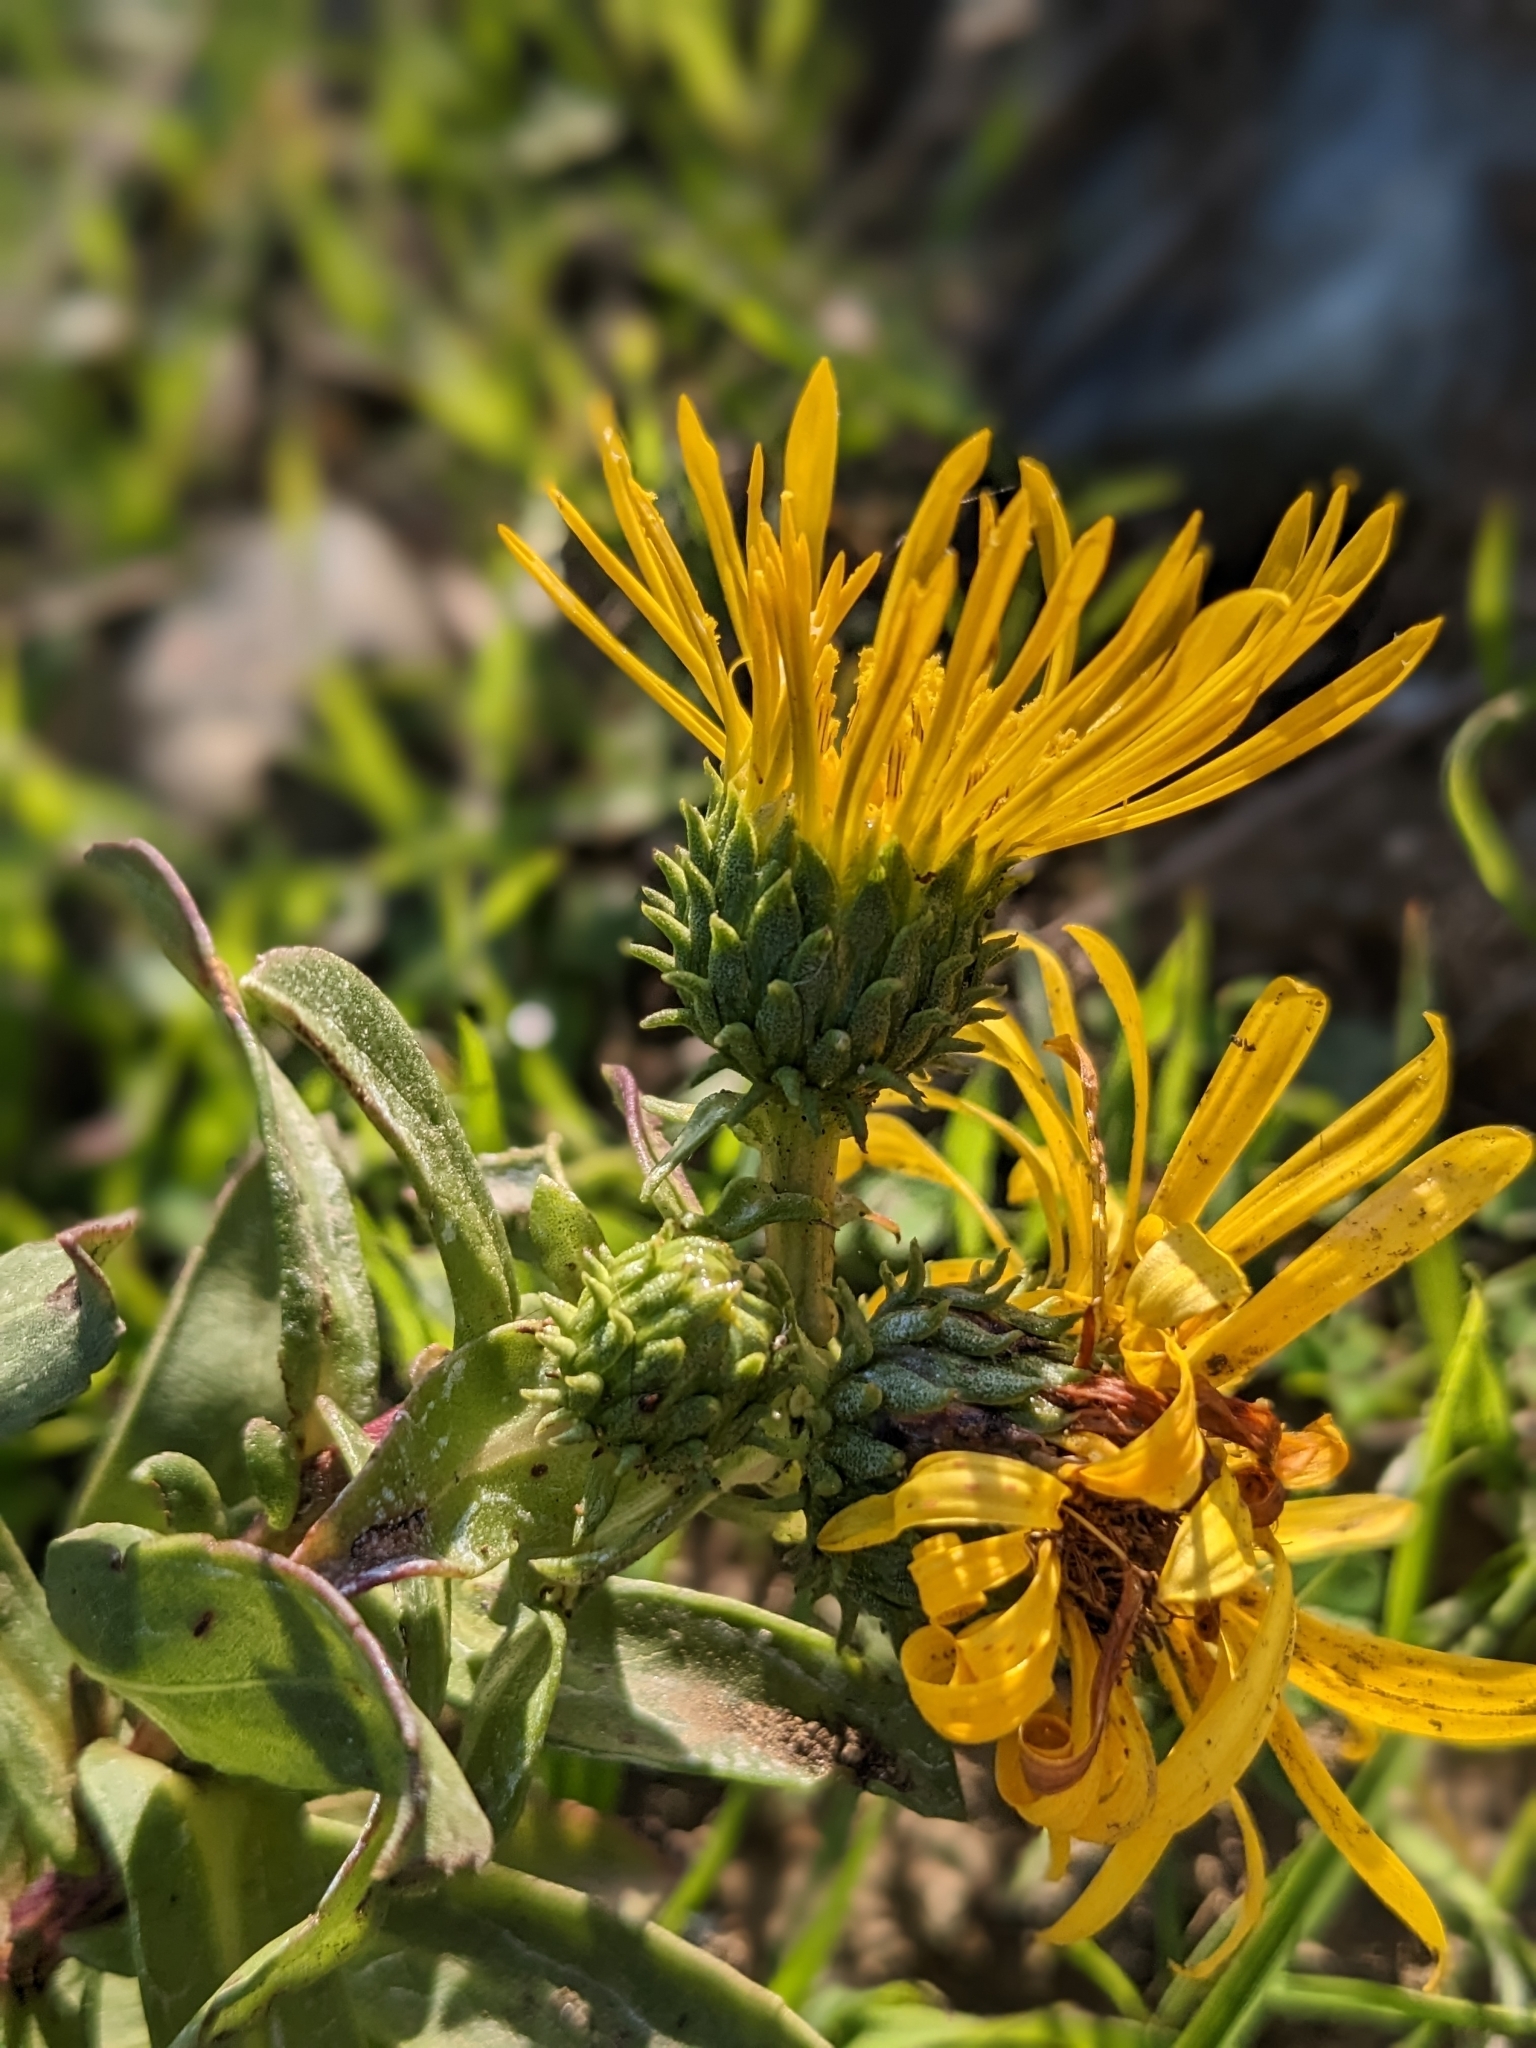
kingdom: Plantae
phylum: Tracheophyta
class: Magnoliopsida
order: Asterales
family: Asteraceae
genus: Grindelia
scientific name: Grindelia hirsutula
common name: Hairy gumweed
